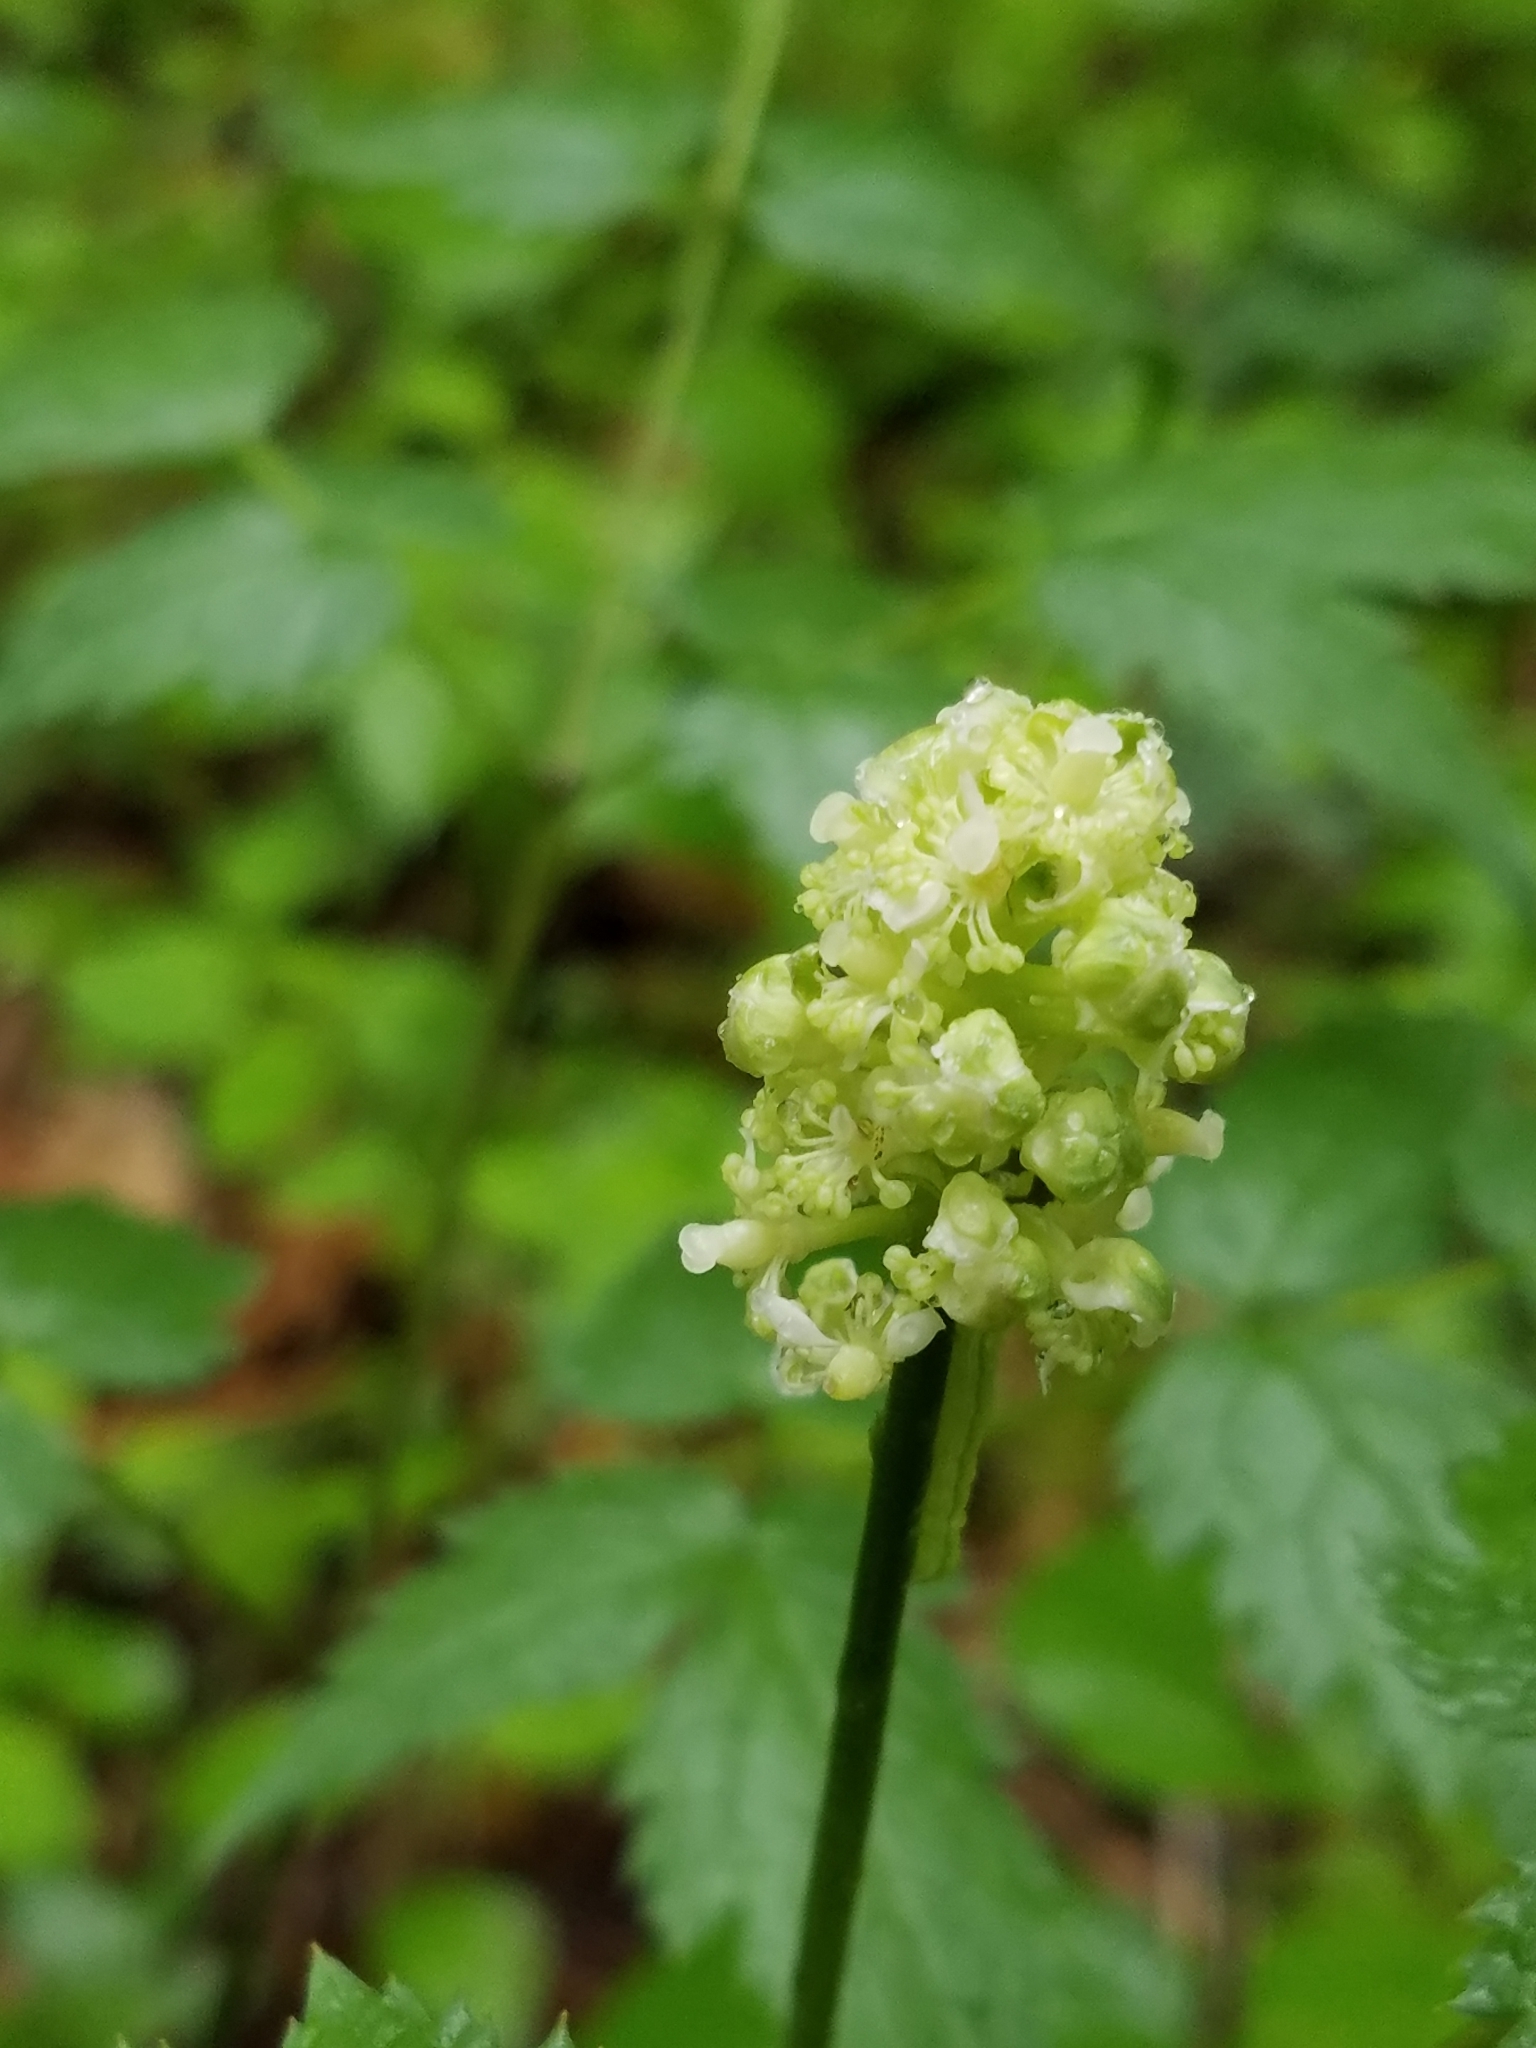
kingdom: Plantae
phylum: Tracheophyta
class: Magnoliopsida
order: Ranunculales
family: Ranunculaceae
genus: Actaea
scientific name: Actaea pachypoda
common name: Doll's-eyes
